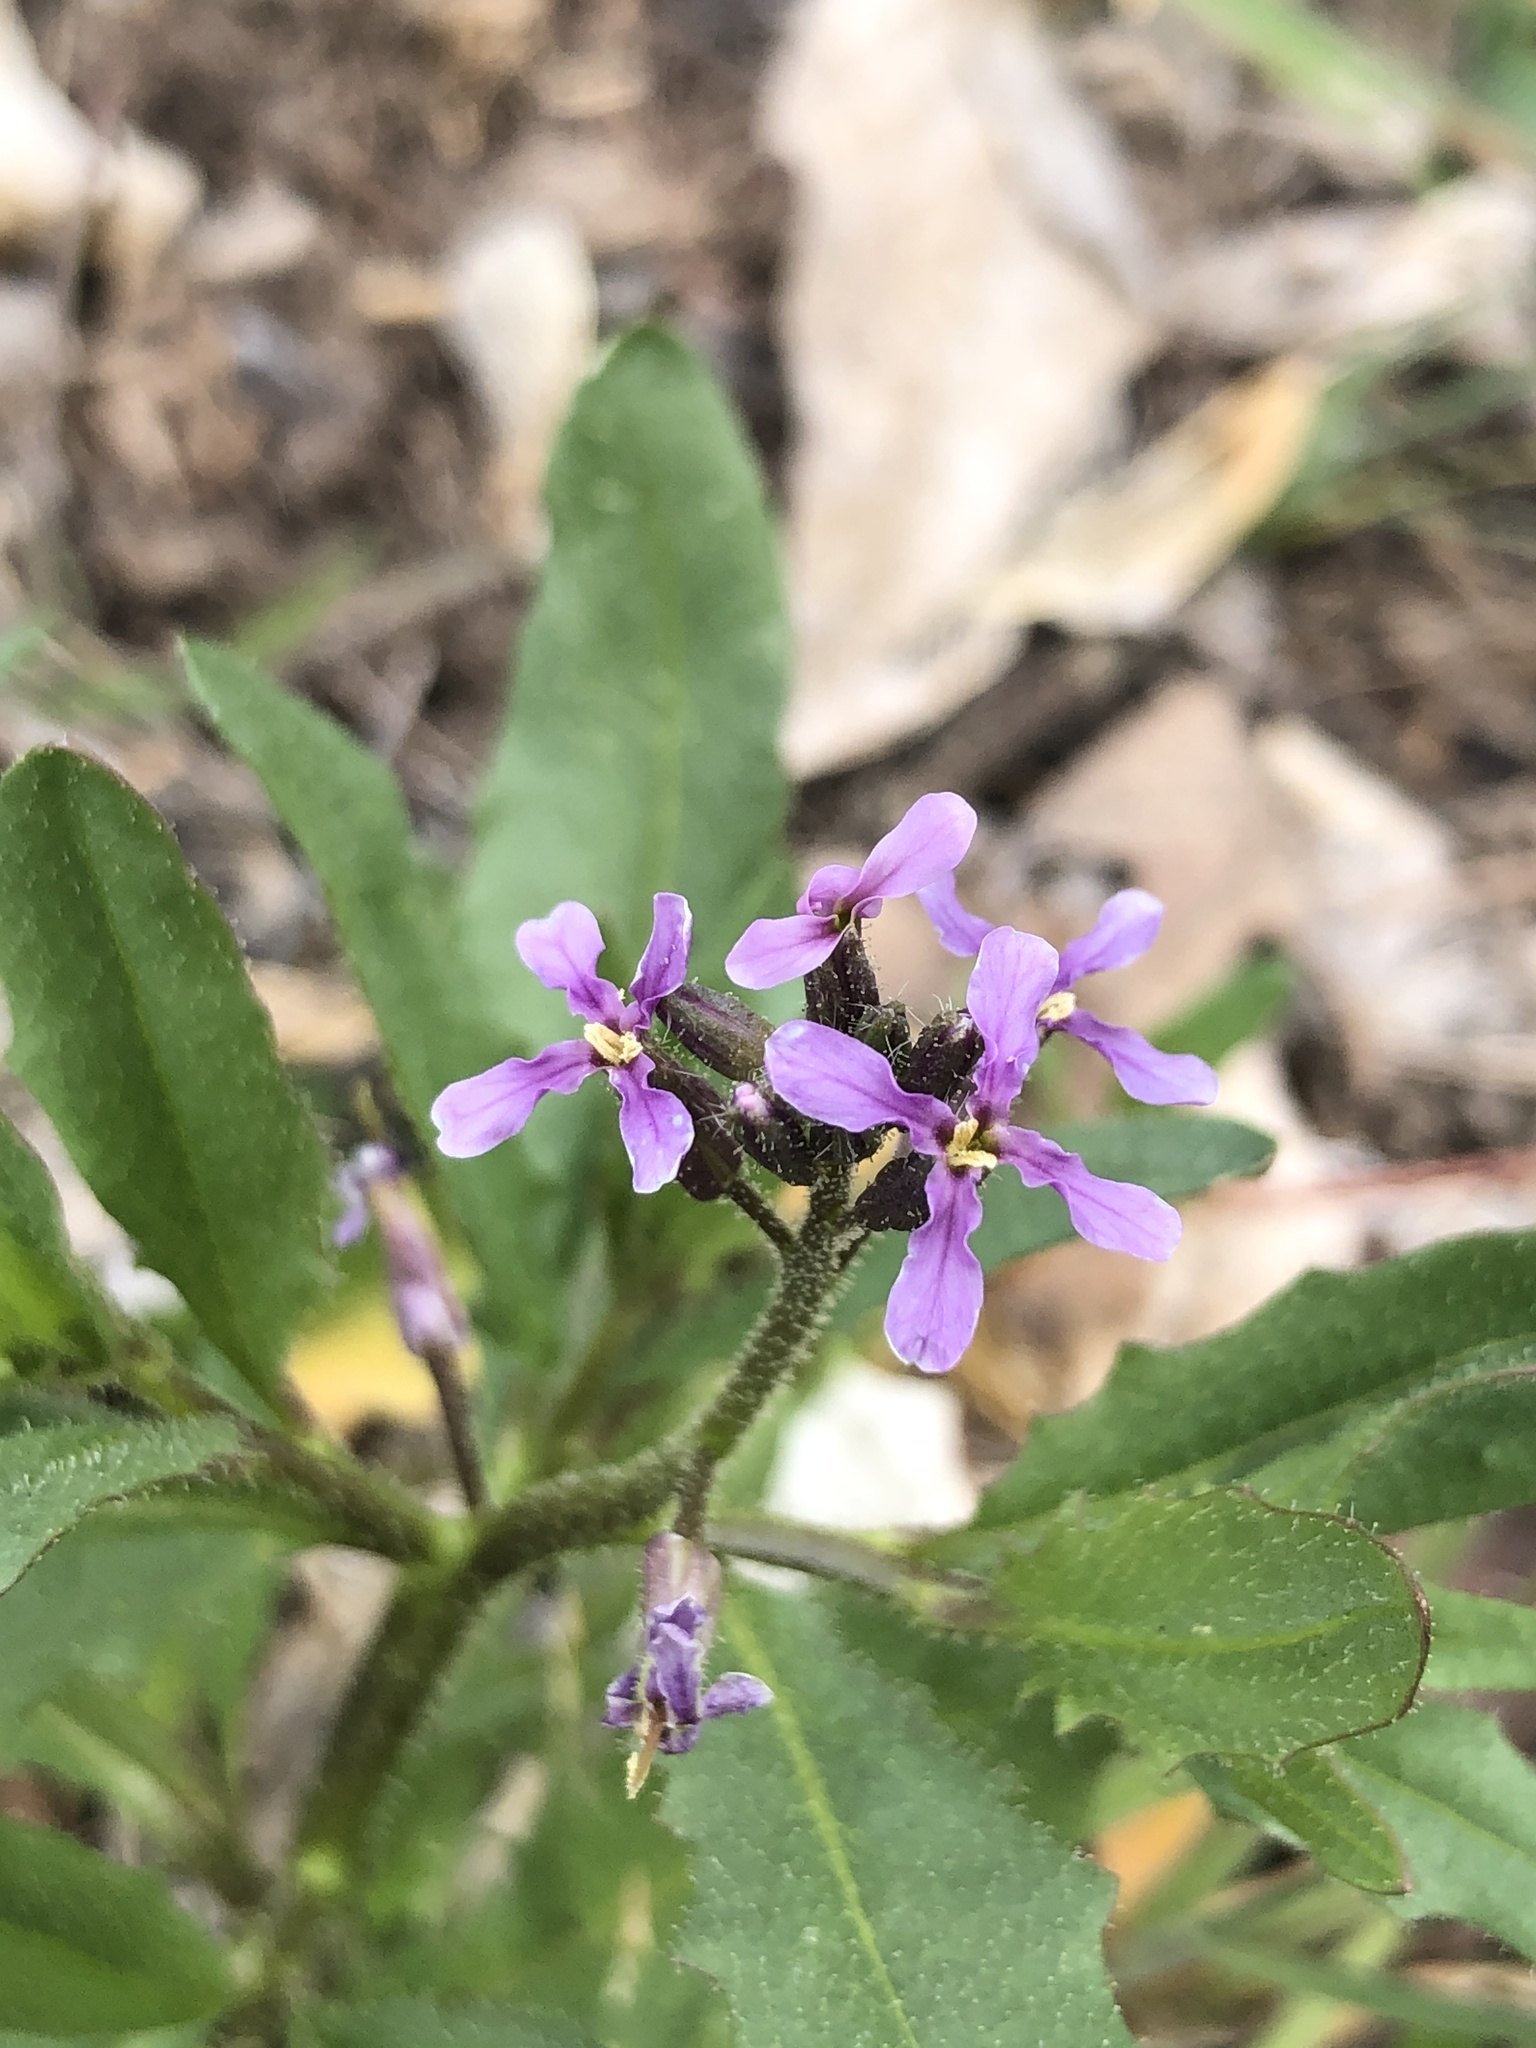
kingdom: Plantae
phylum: Tracheophyta
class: Magnoliopsida
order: Brassicales
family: Brassicaceae
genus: Chorispora
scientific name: Chorispora tenella
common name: Crossflower
